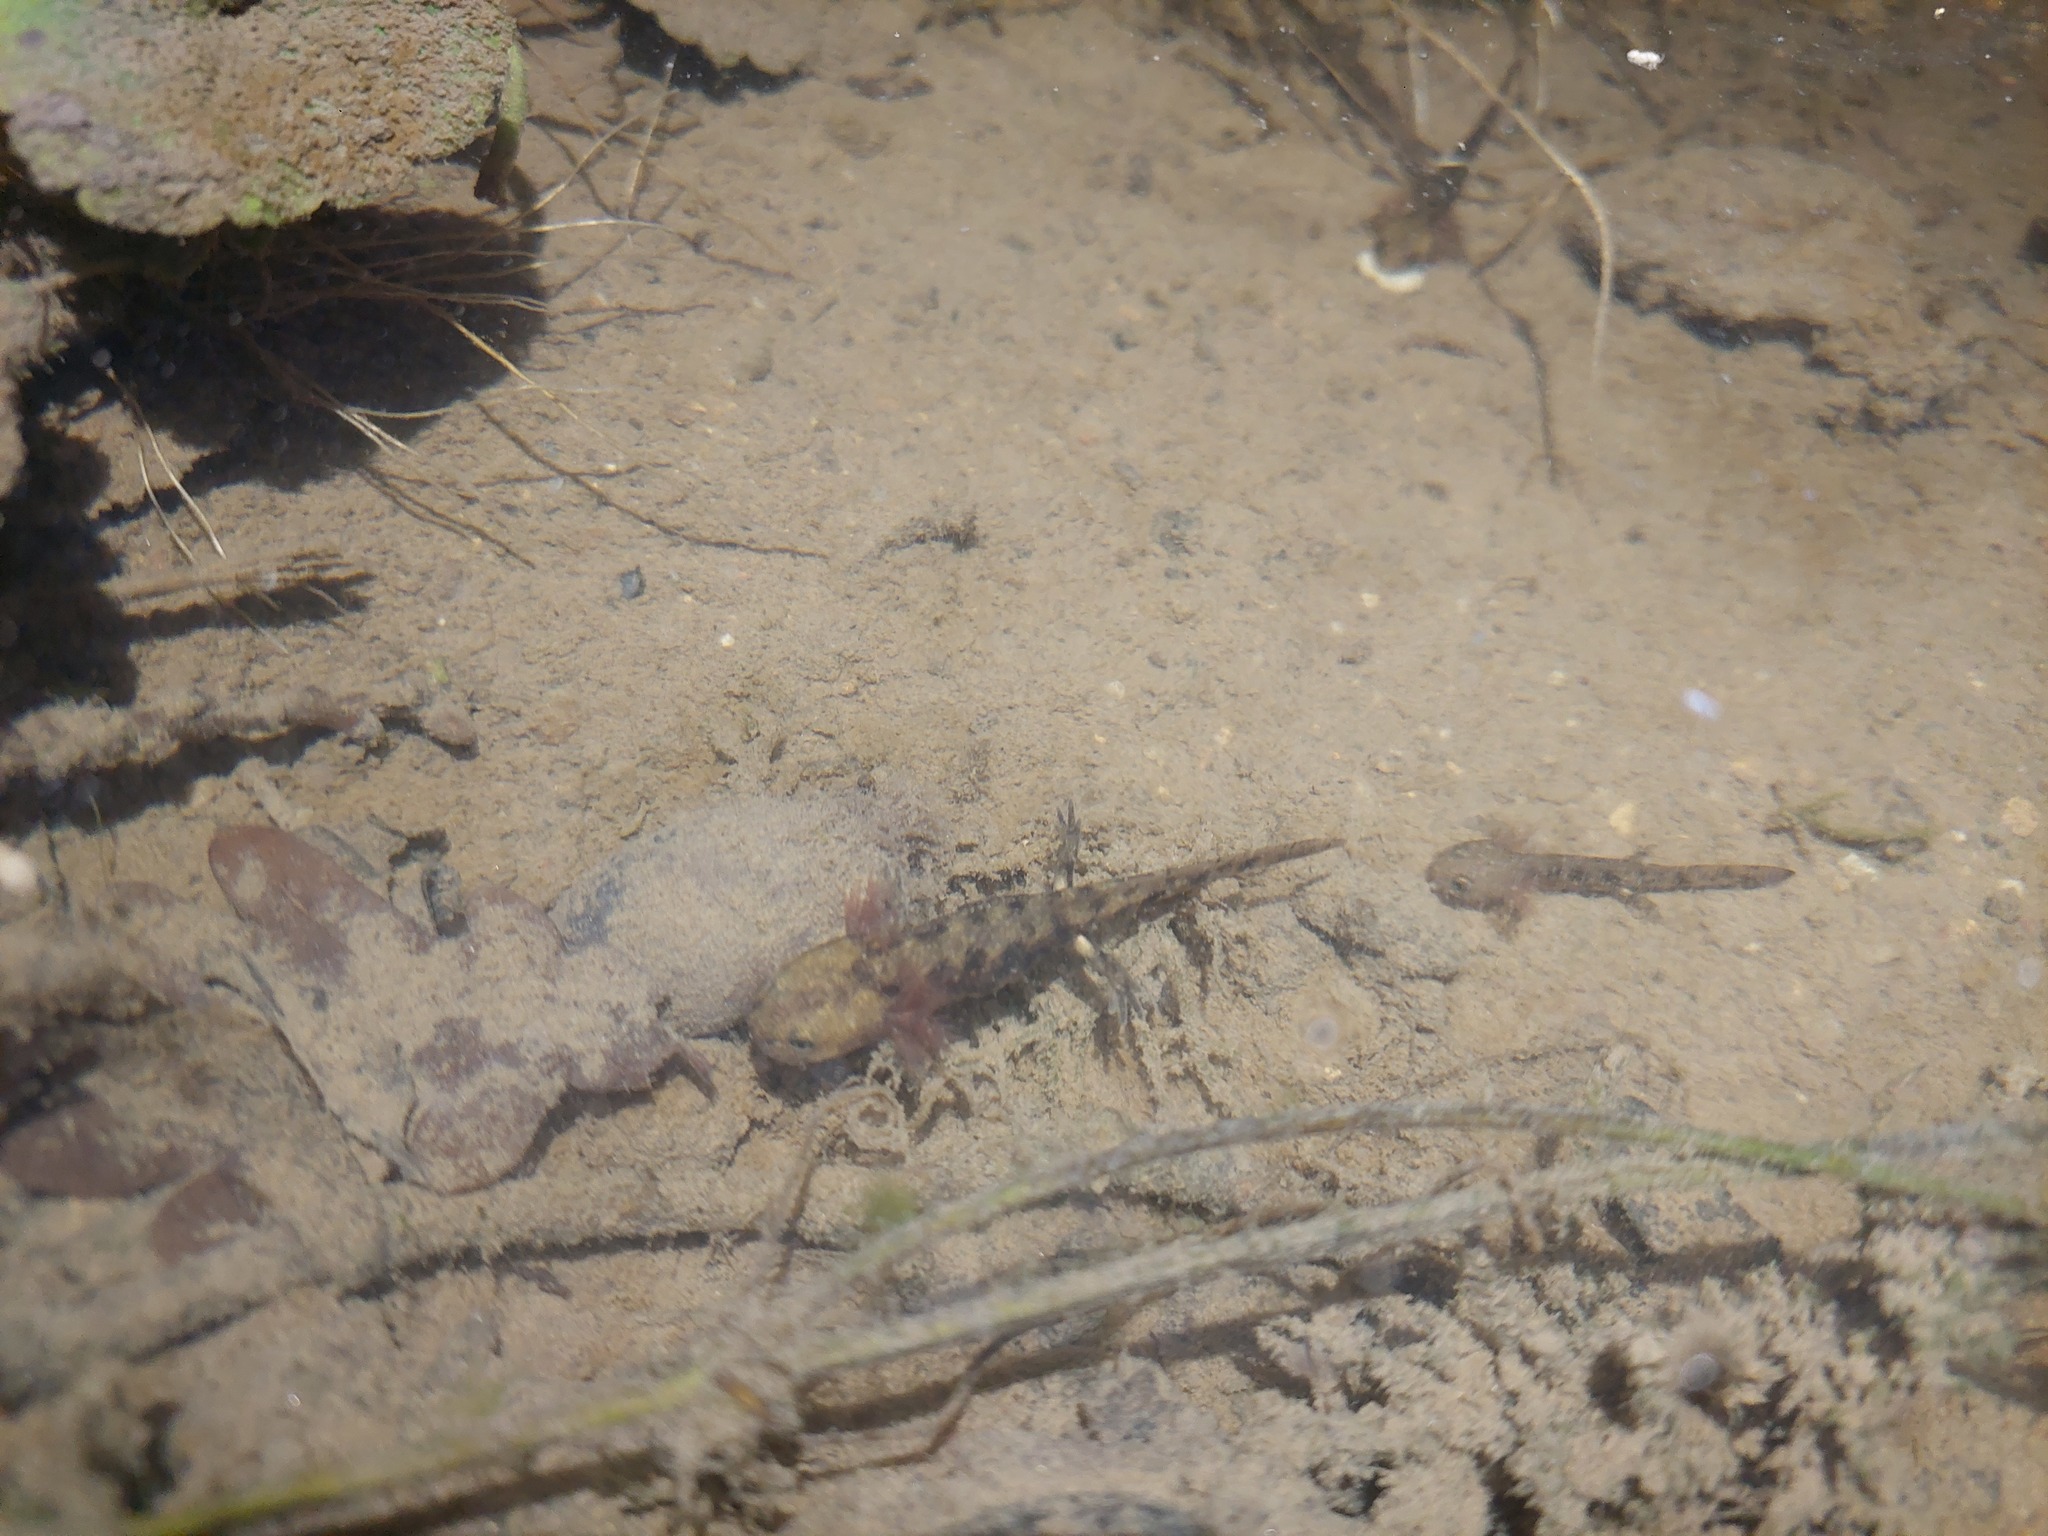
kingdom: Animalia
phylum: Chordata
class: Amphibia
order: Caudata
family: Salamandridae
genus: Salamandra
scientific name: Salamandra salamandra
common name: Fire salamander
